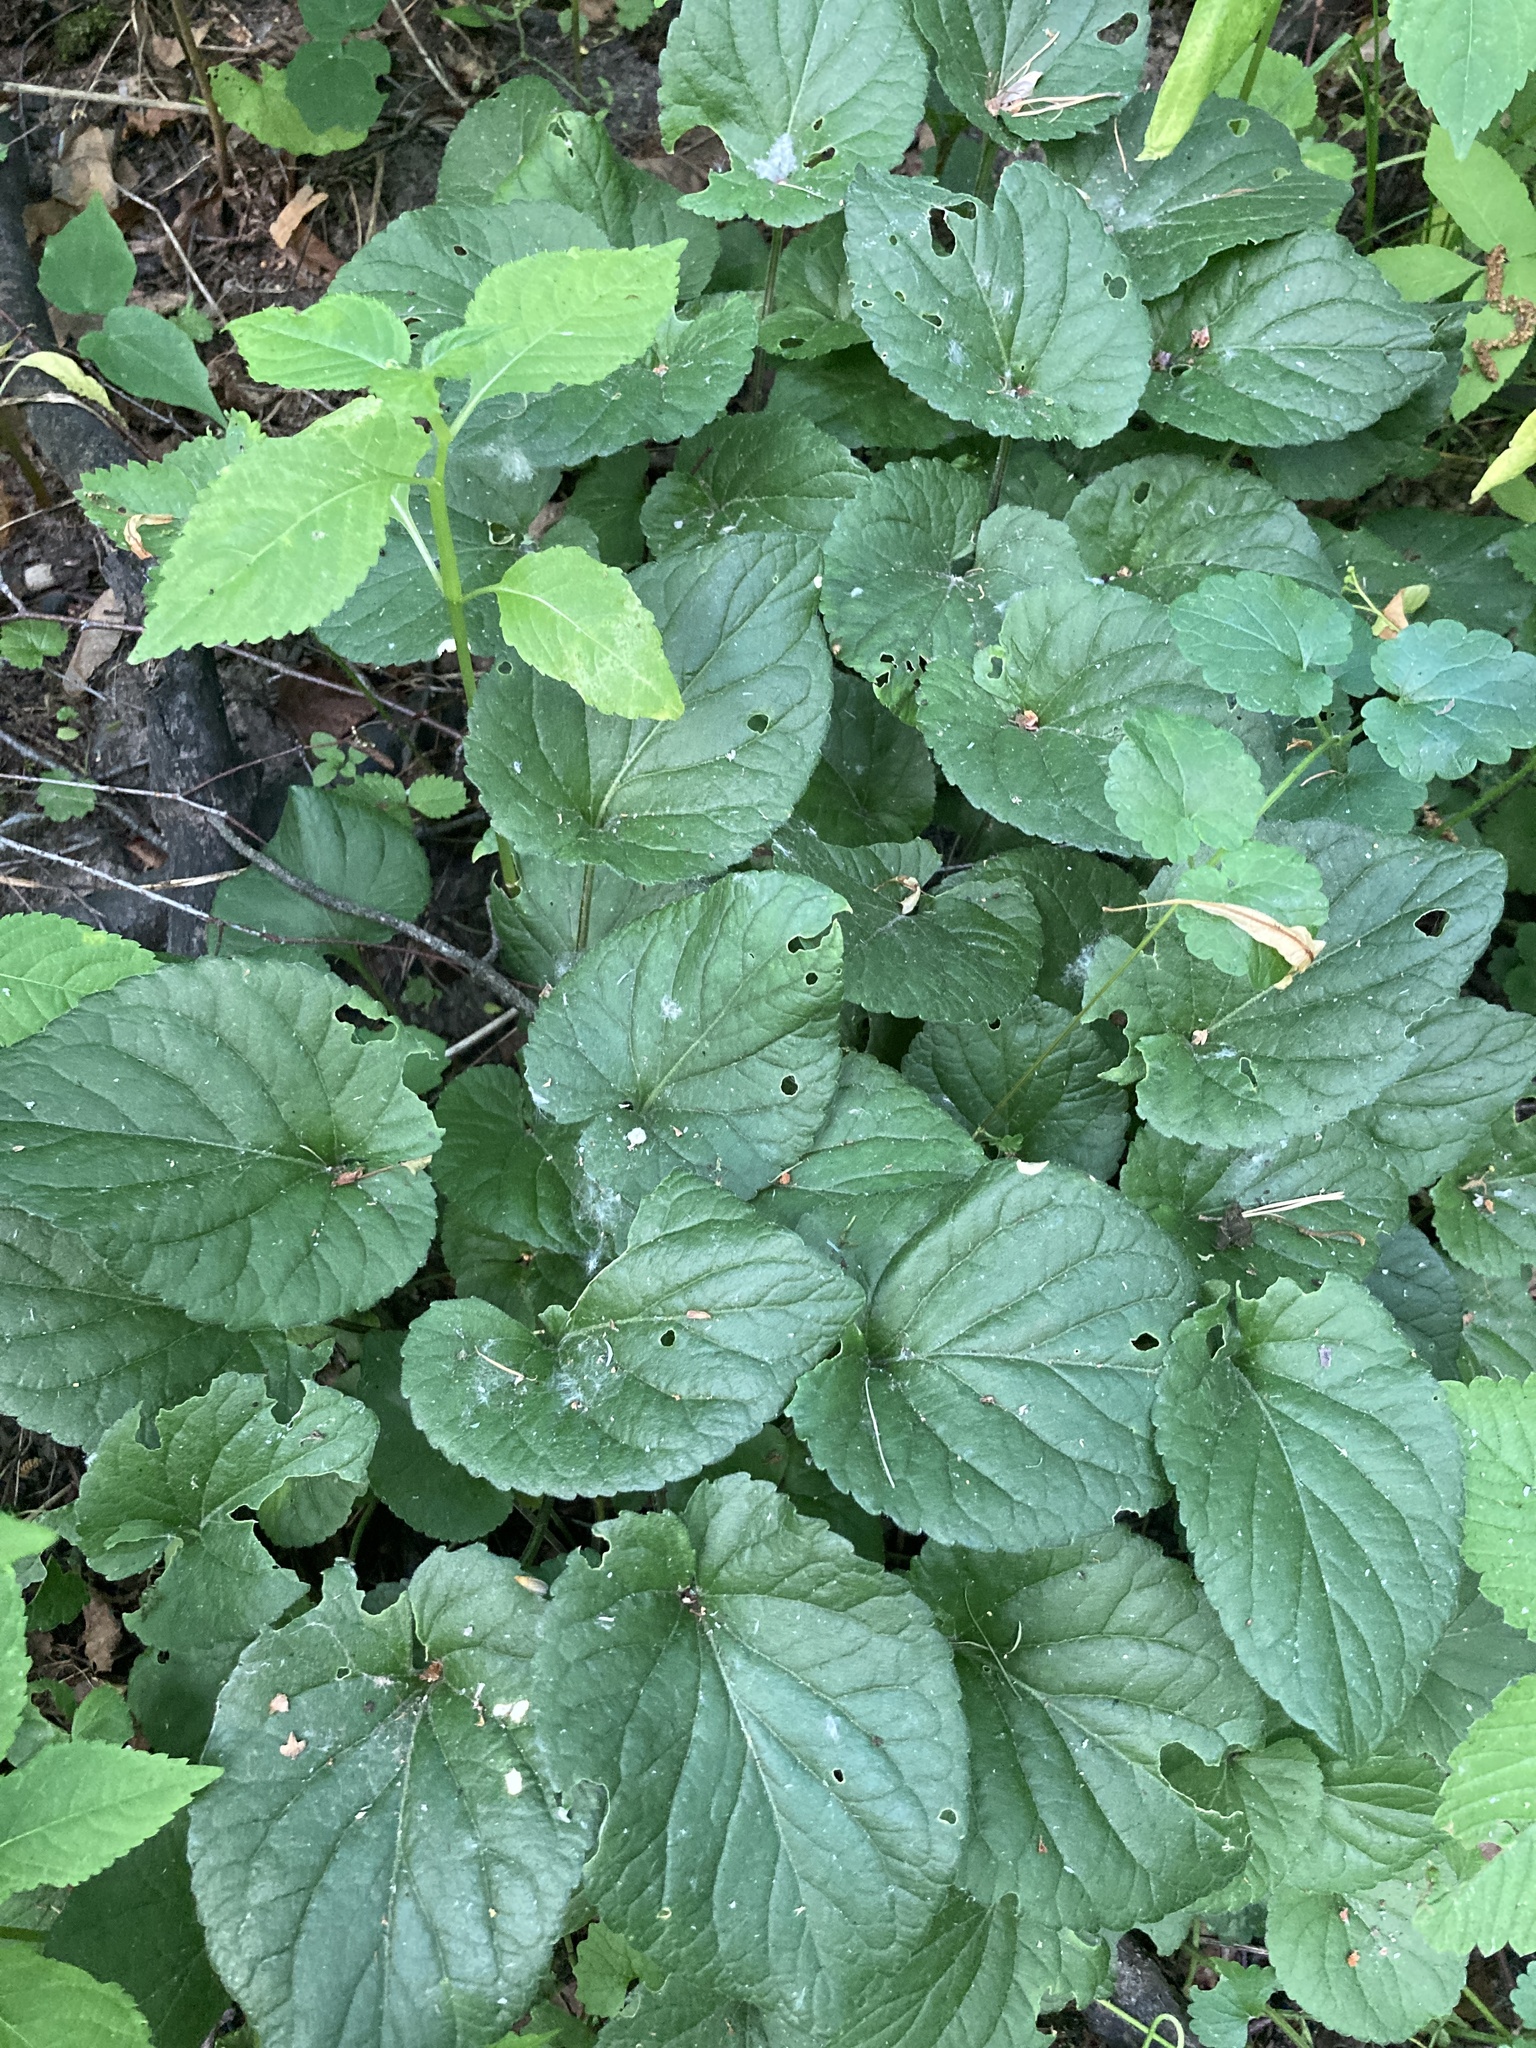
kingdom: Plantae
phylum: Tracheophyta
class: Magnoliopsida
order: Malpighiales
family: Violaceae
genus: Viola
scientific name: Viola odorata
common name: Sweet violet
